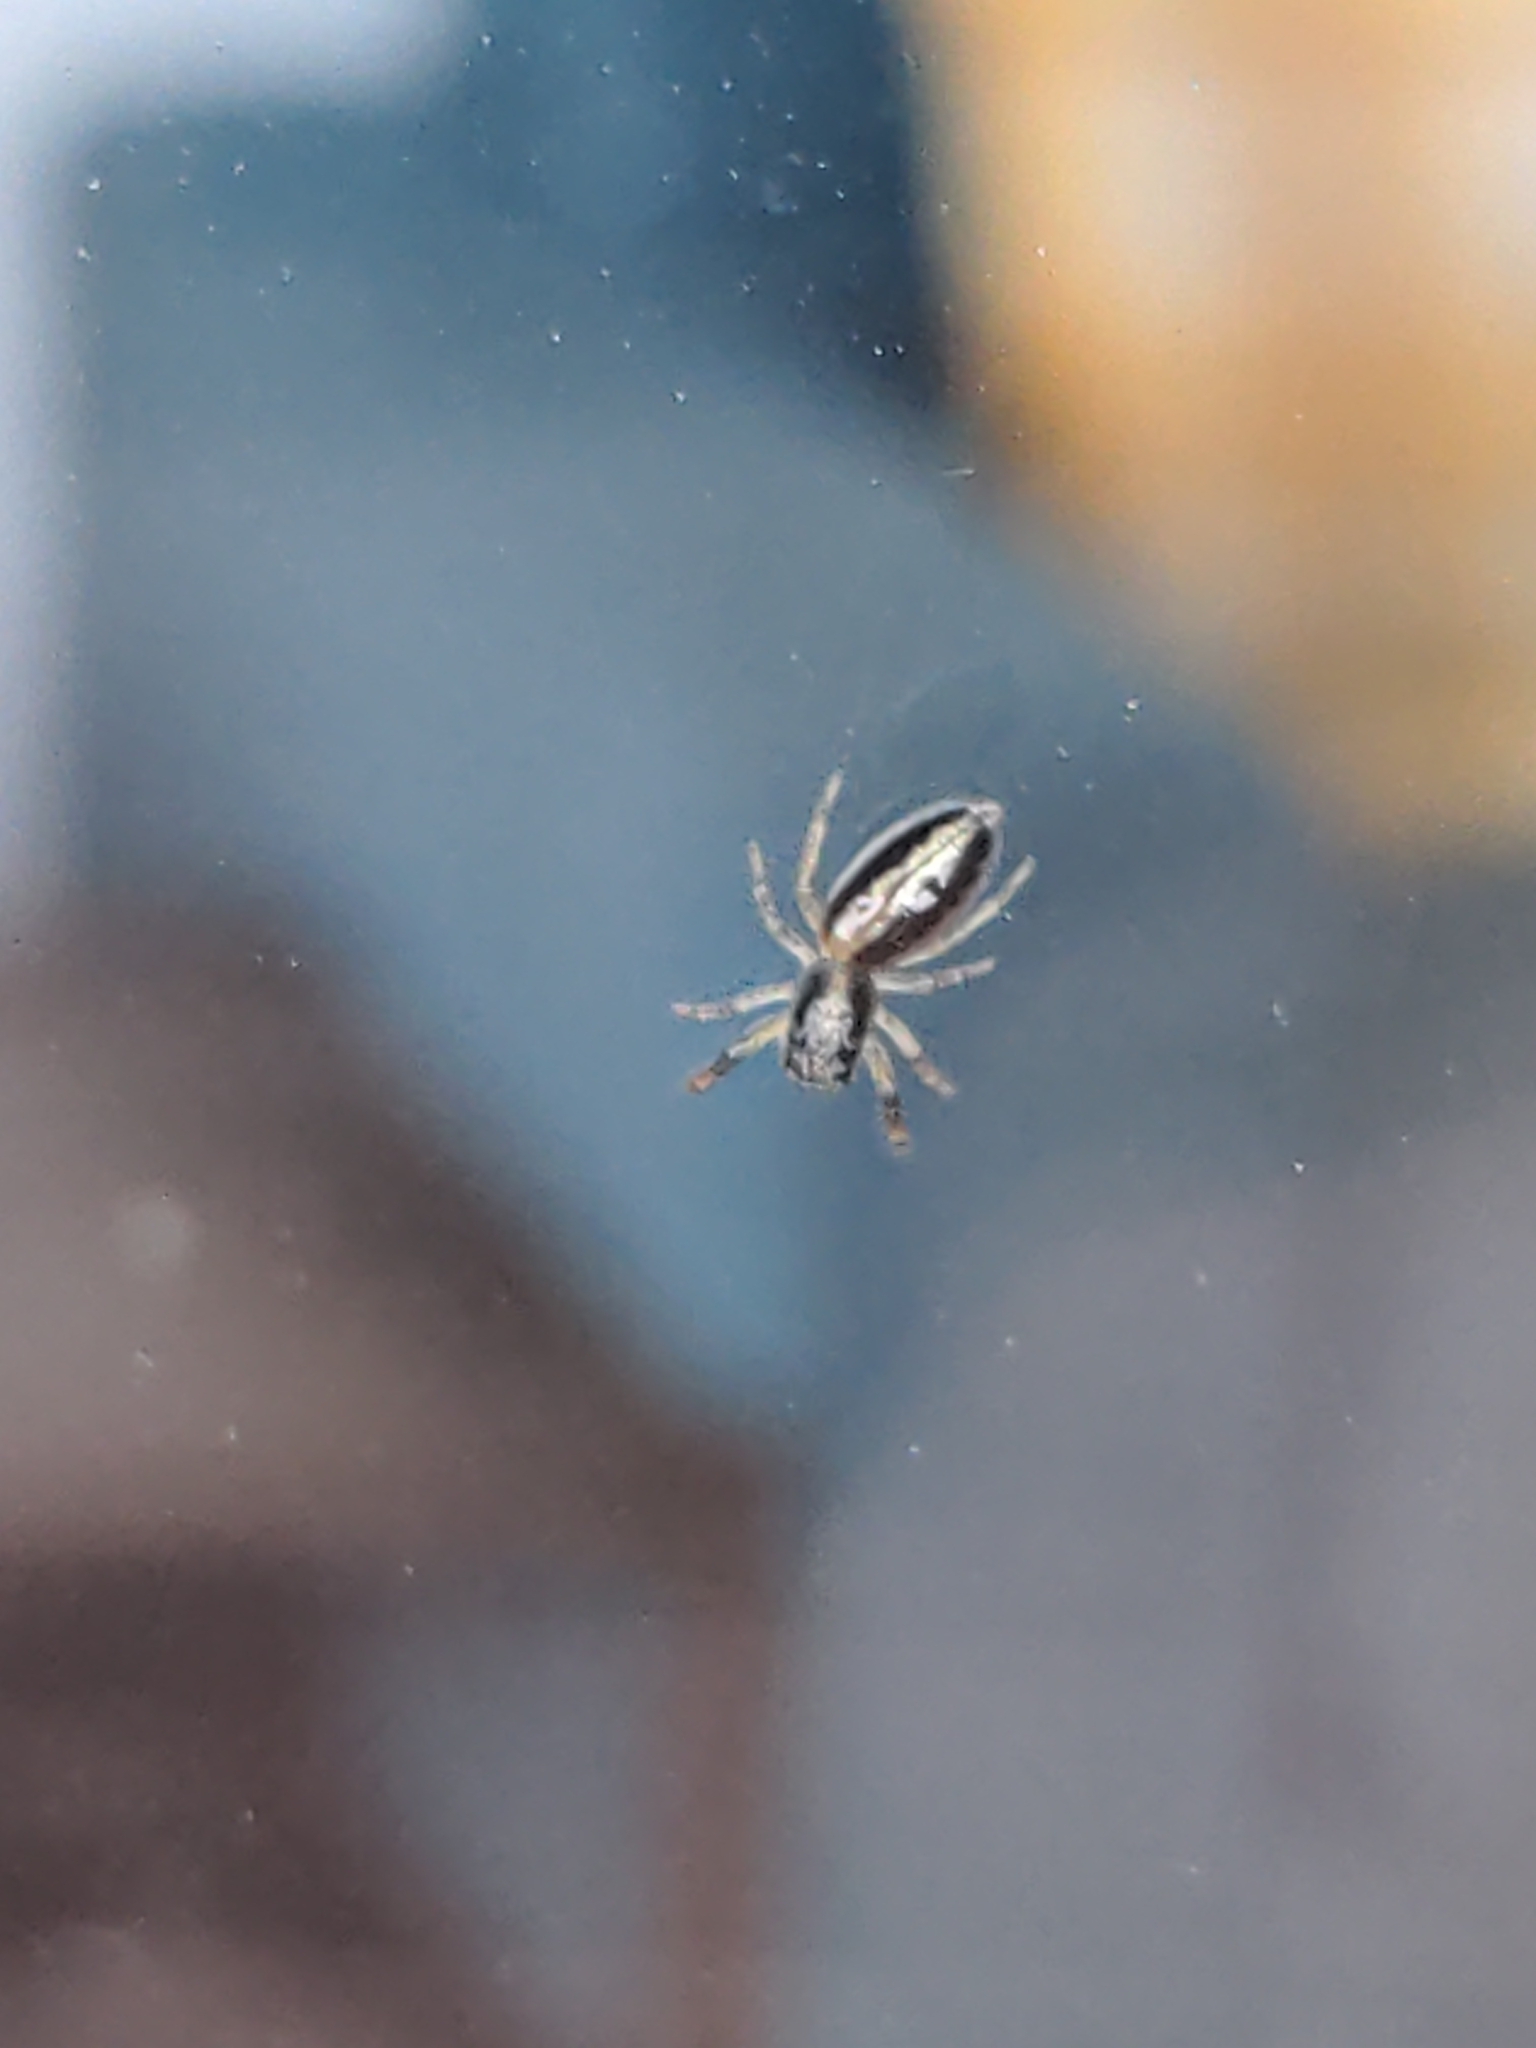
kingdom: Animalia
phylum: Arthropoda
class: Arachnida
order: Araneae
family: Salticidae
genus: Trite
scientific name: Trite planiceps
